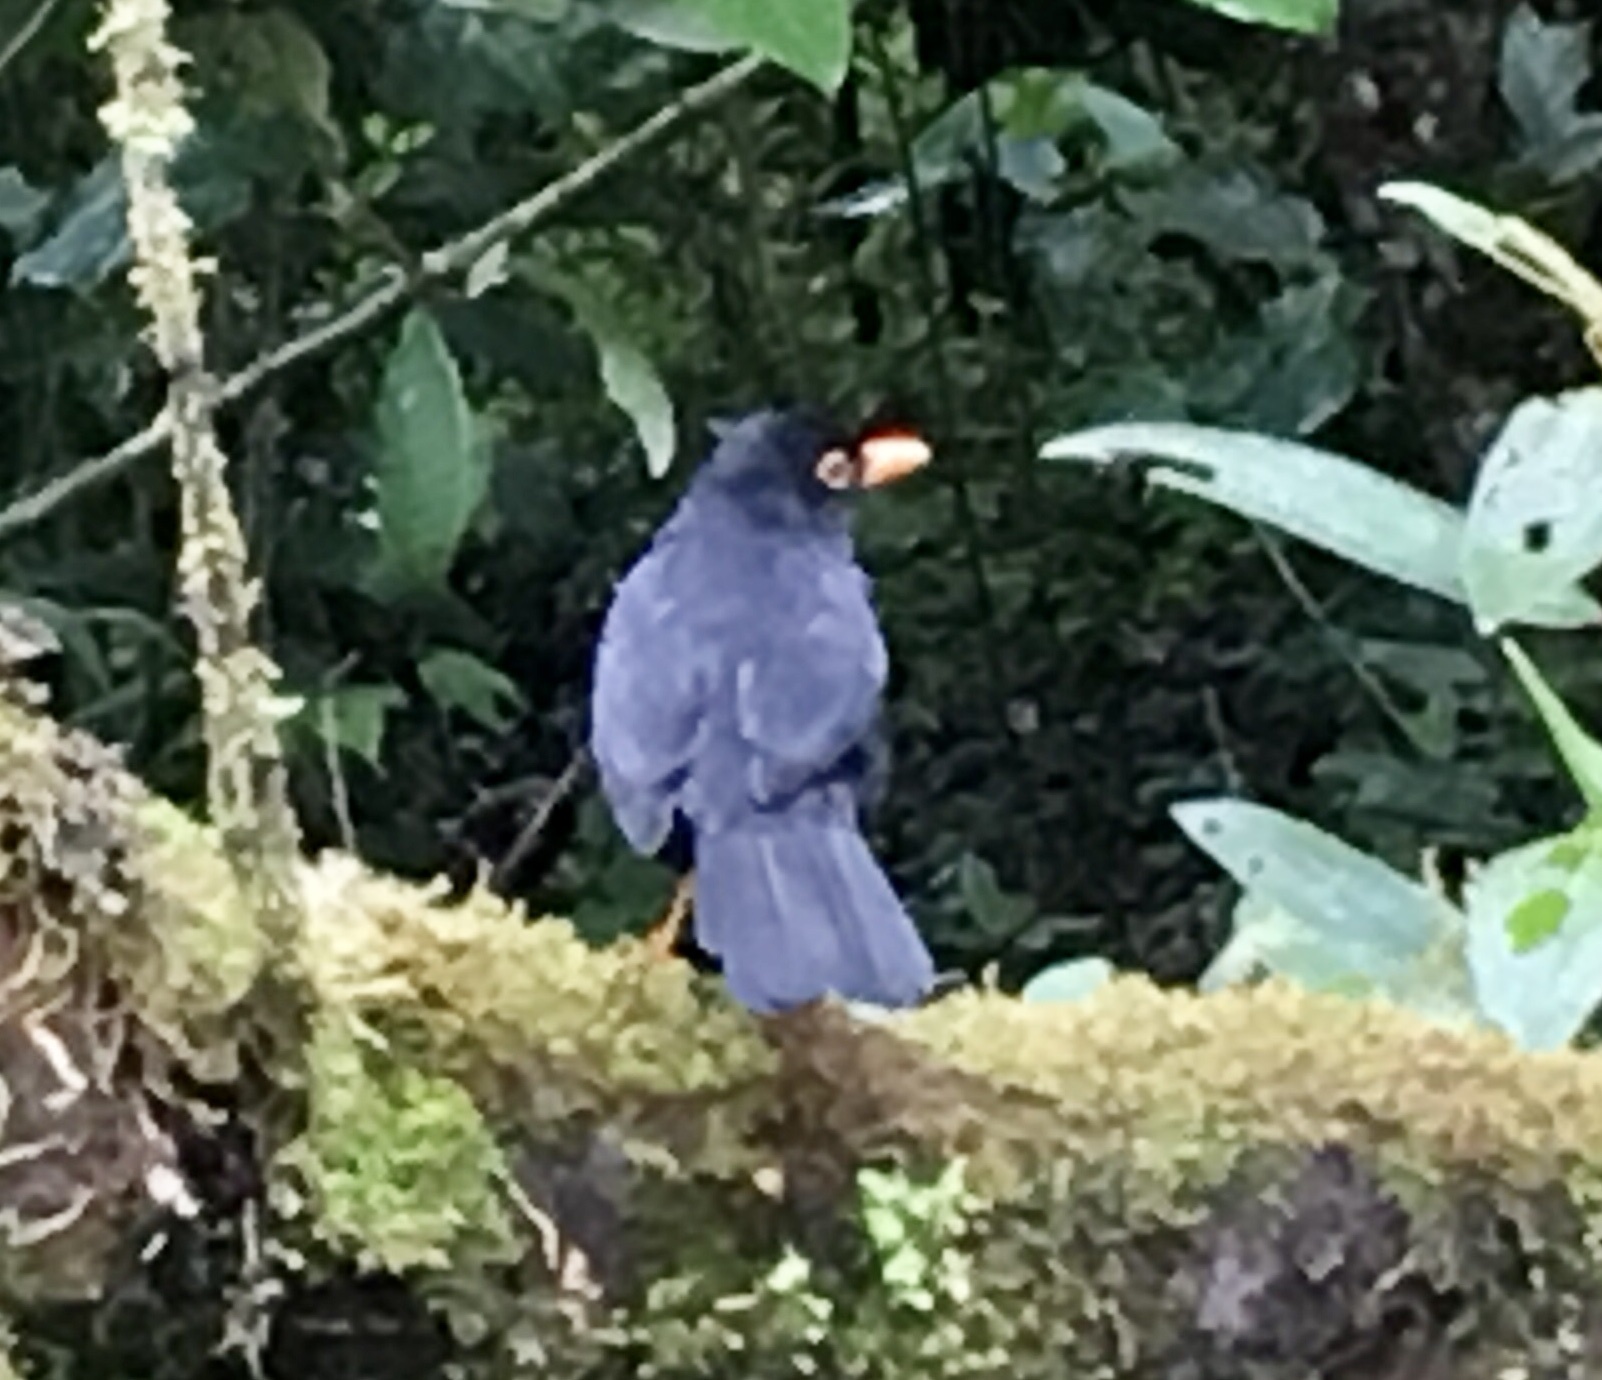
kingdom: Animalia
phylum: Chordata
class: Aves
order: Passeriformes
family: Turdidae
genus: Turdus
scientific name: Turdus serranus
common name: Glossy-black thrush
